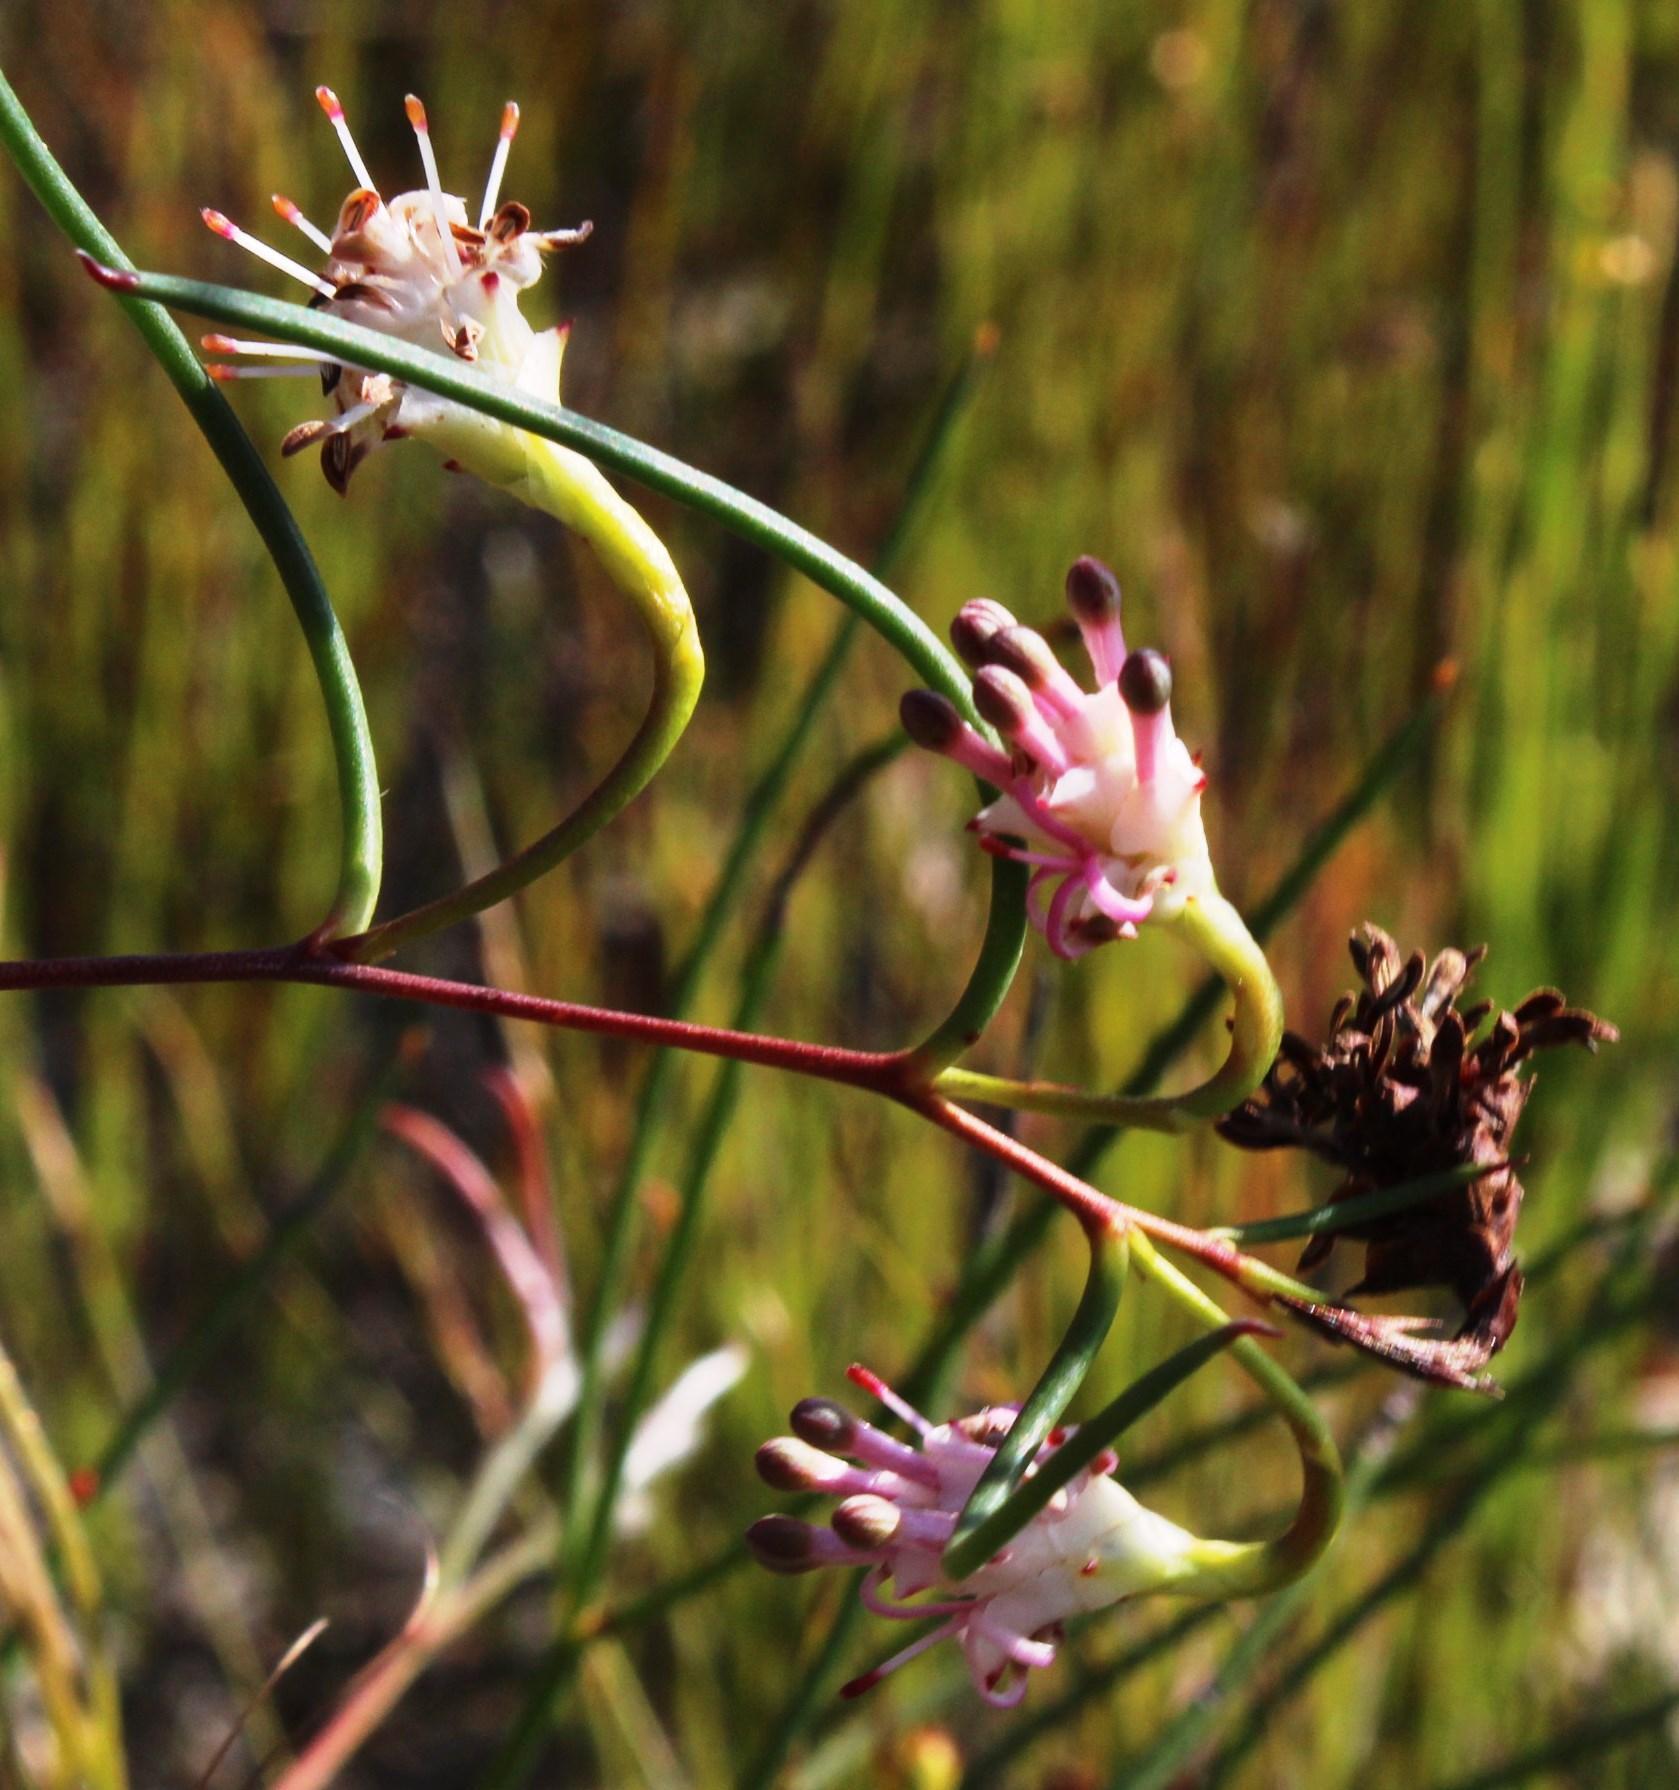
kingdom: Plantae
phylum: Tracheophyta
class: Magnoliopsida
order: Proteales
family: Proteaceae
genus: Serruria
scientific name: Serruria flagellifolia
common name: Houwhoek spiderhead
